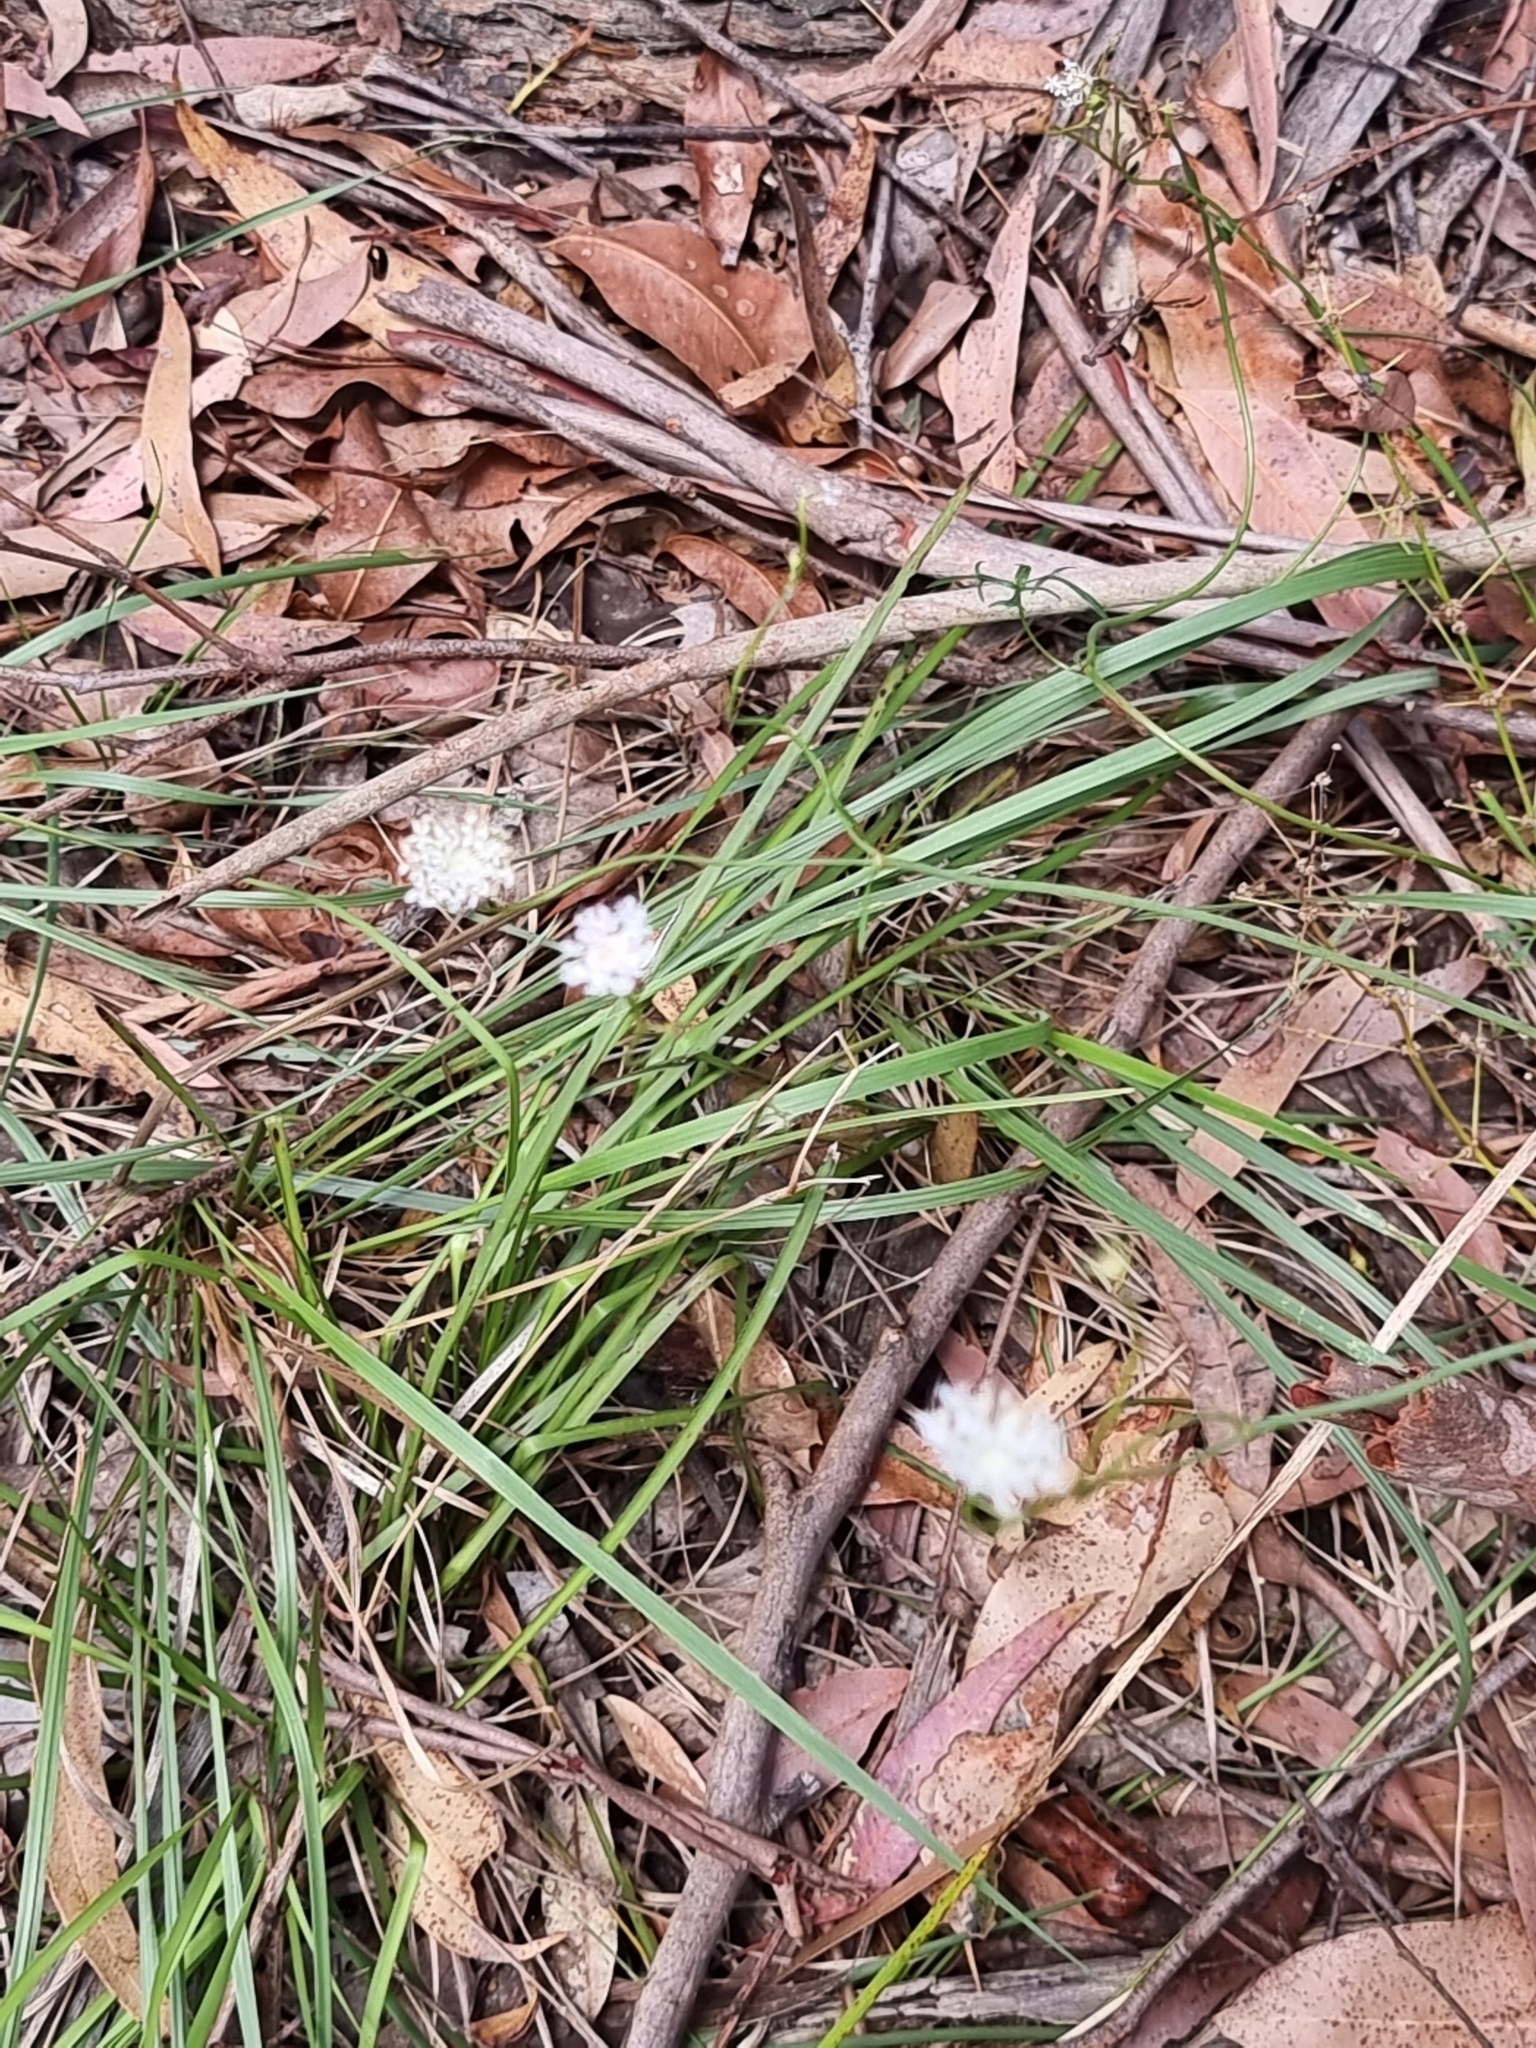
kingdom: Plantae
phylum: Tracheophyta
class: Magnoliopsida
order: Apiales
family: Araliaceae
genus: Trachymene
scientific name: Trachymene incisa
